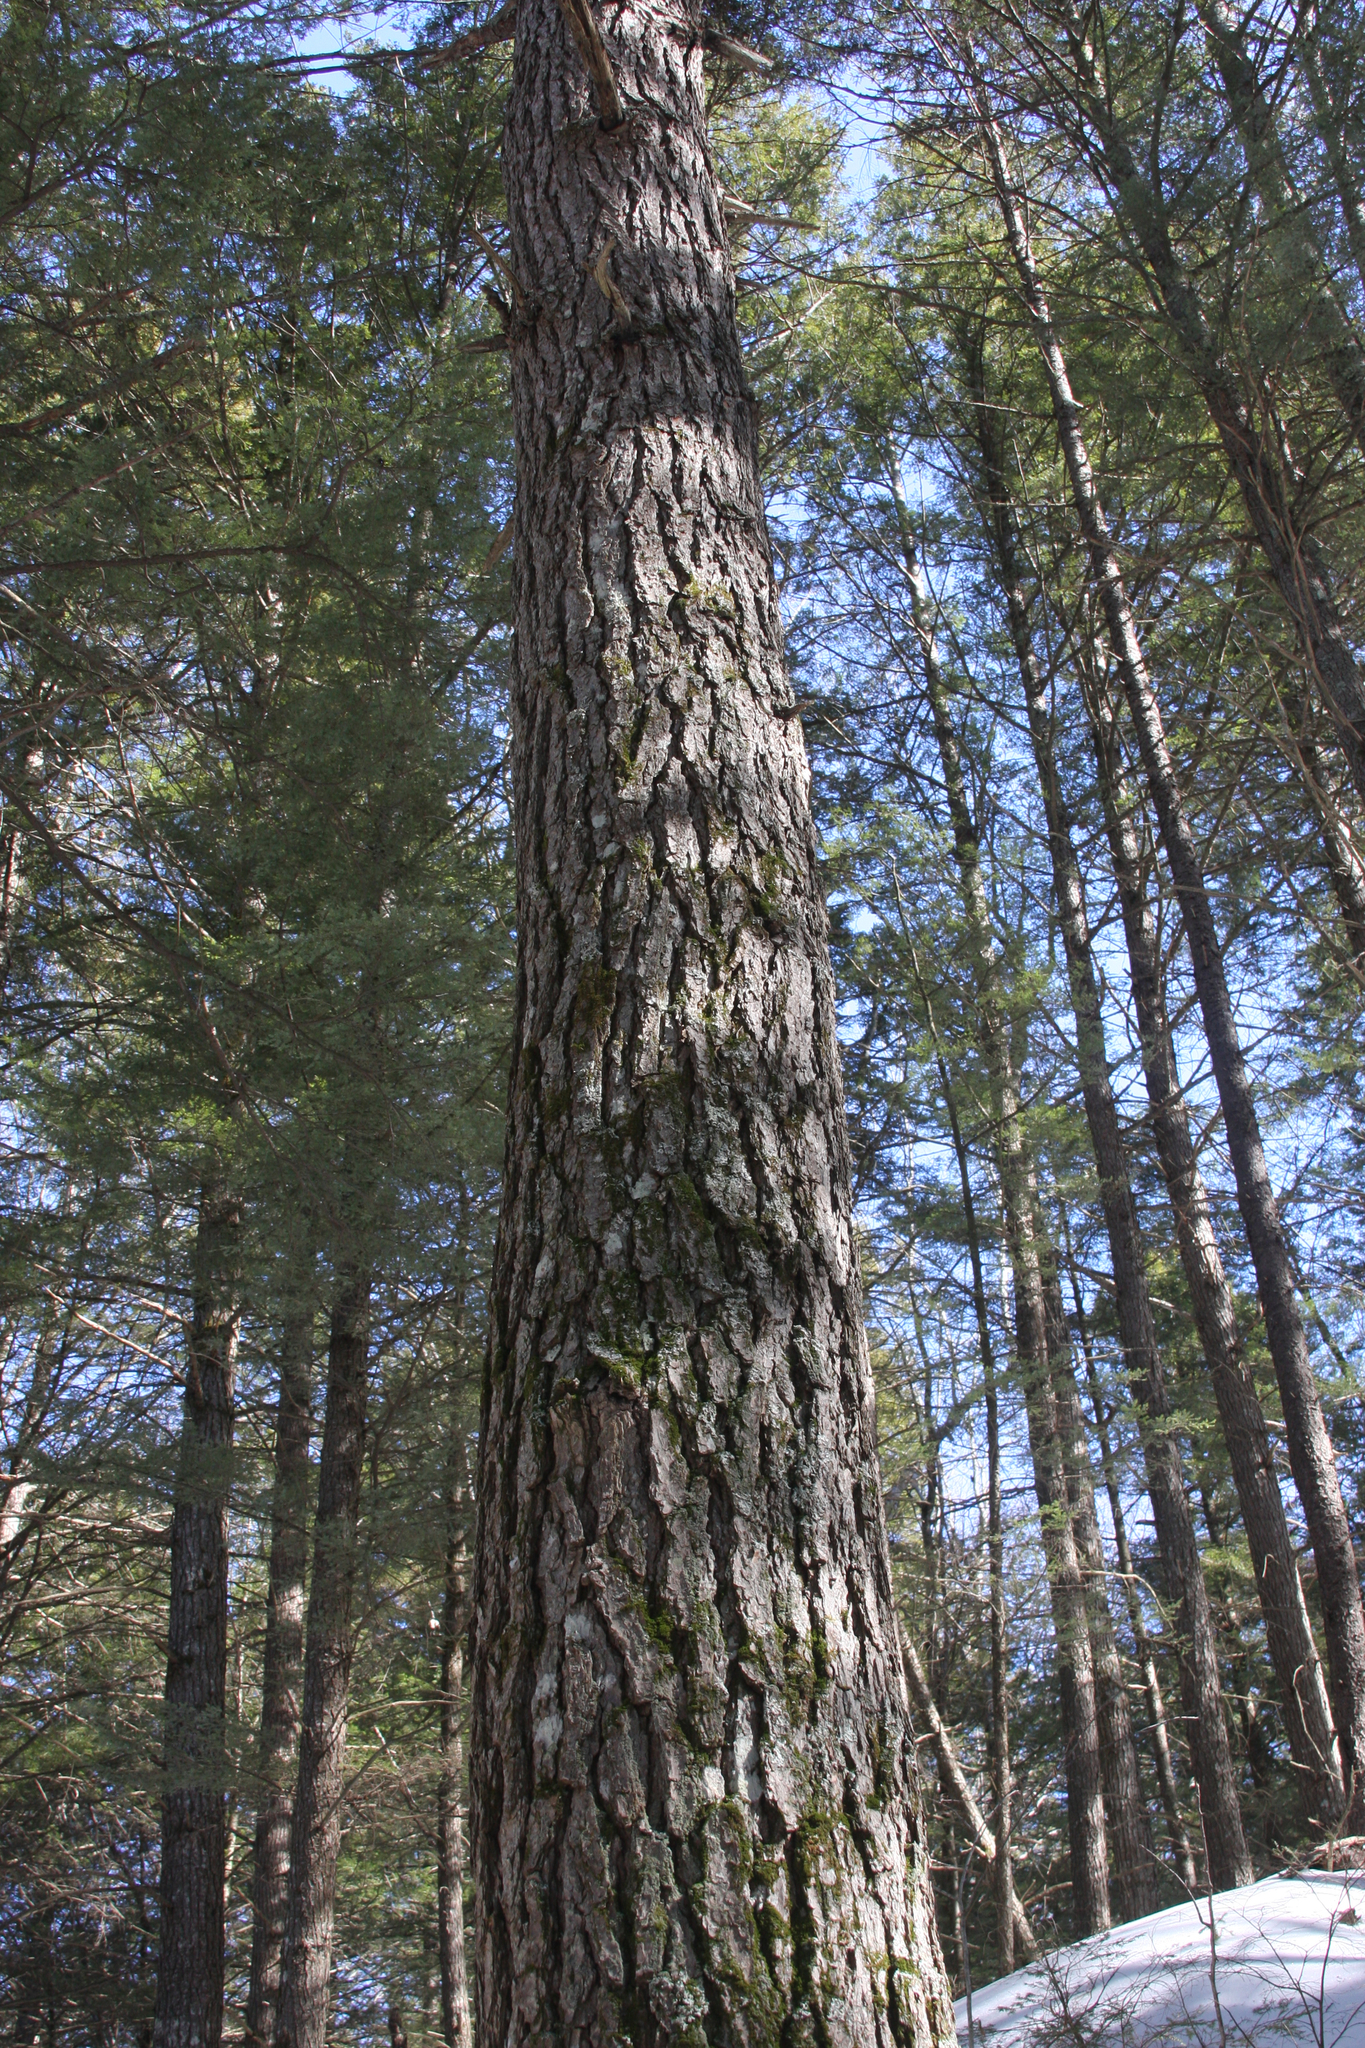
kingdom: Plantae
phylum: Tracheophyta
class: Pinopsida
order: Pinales
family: Pinaceae
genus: Tsuga
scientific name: Tsuga canadensis
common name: Eastern hemlock
